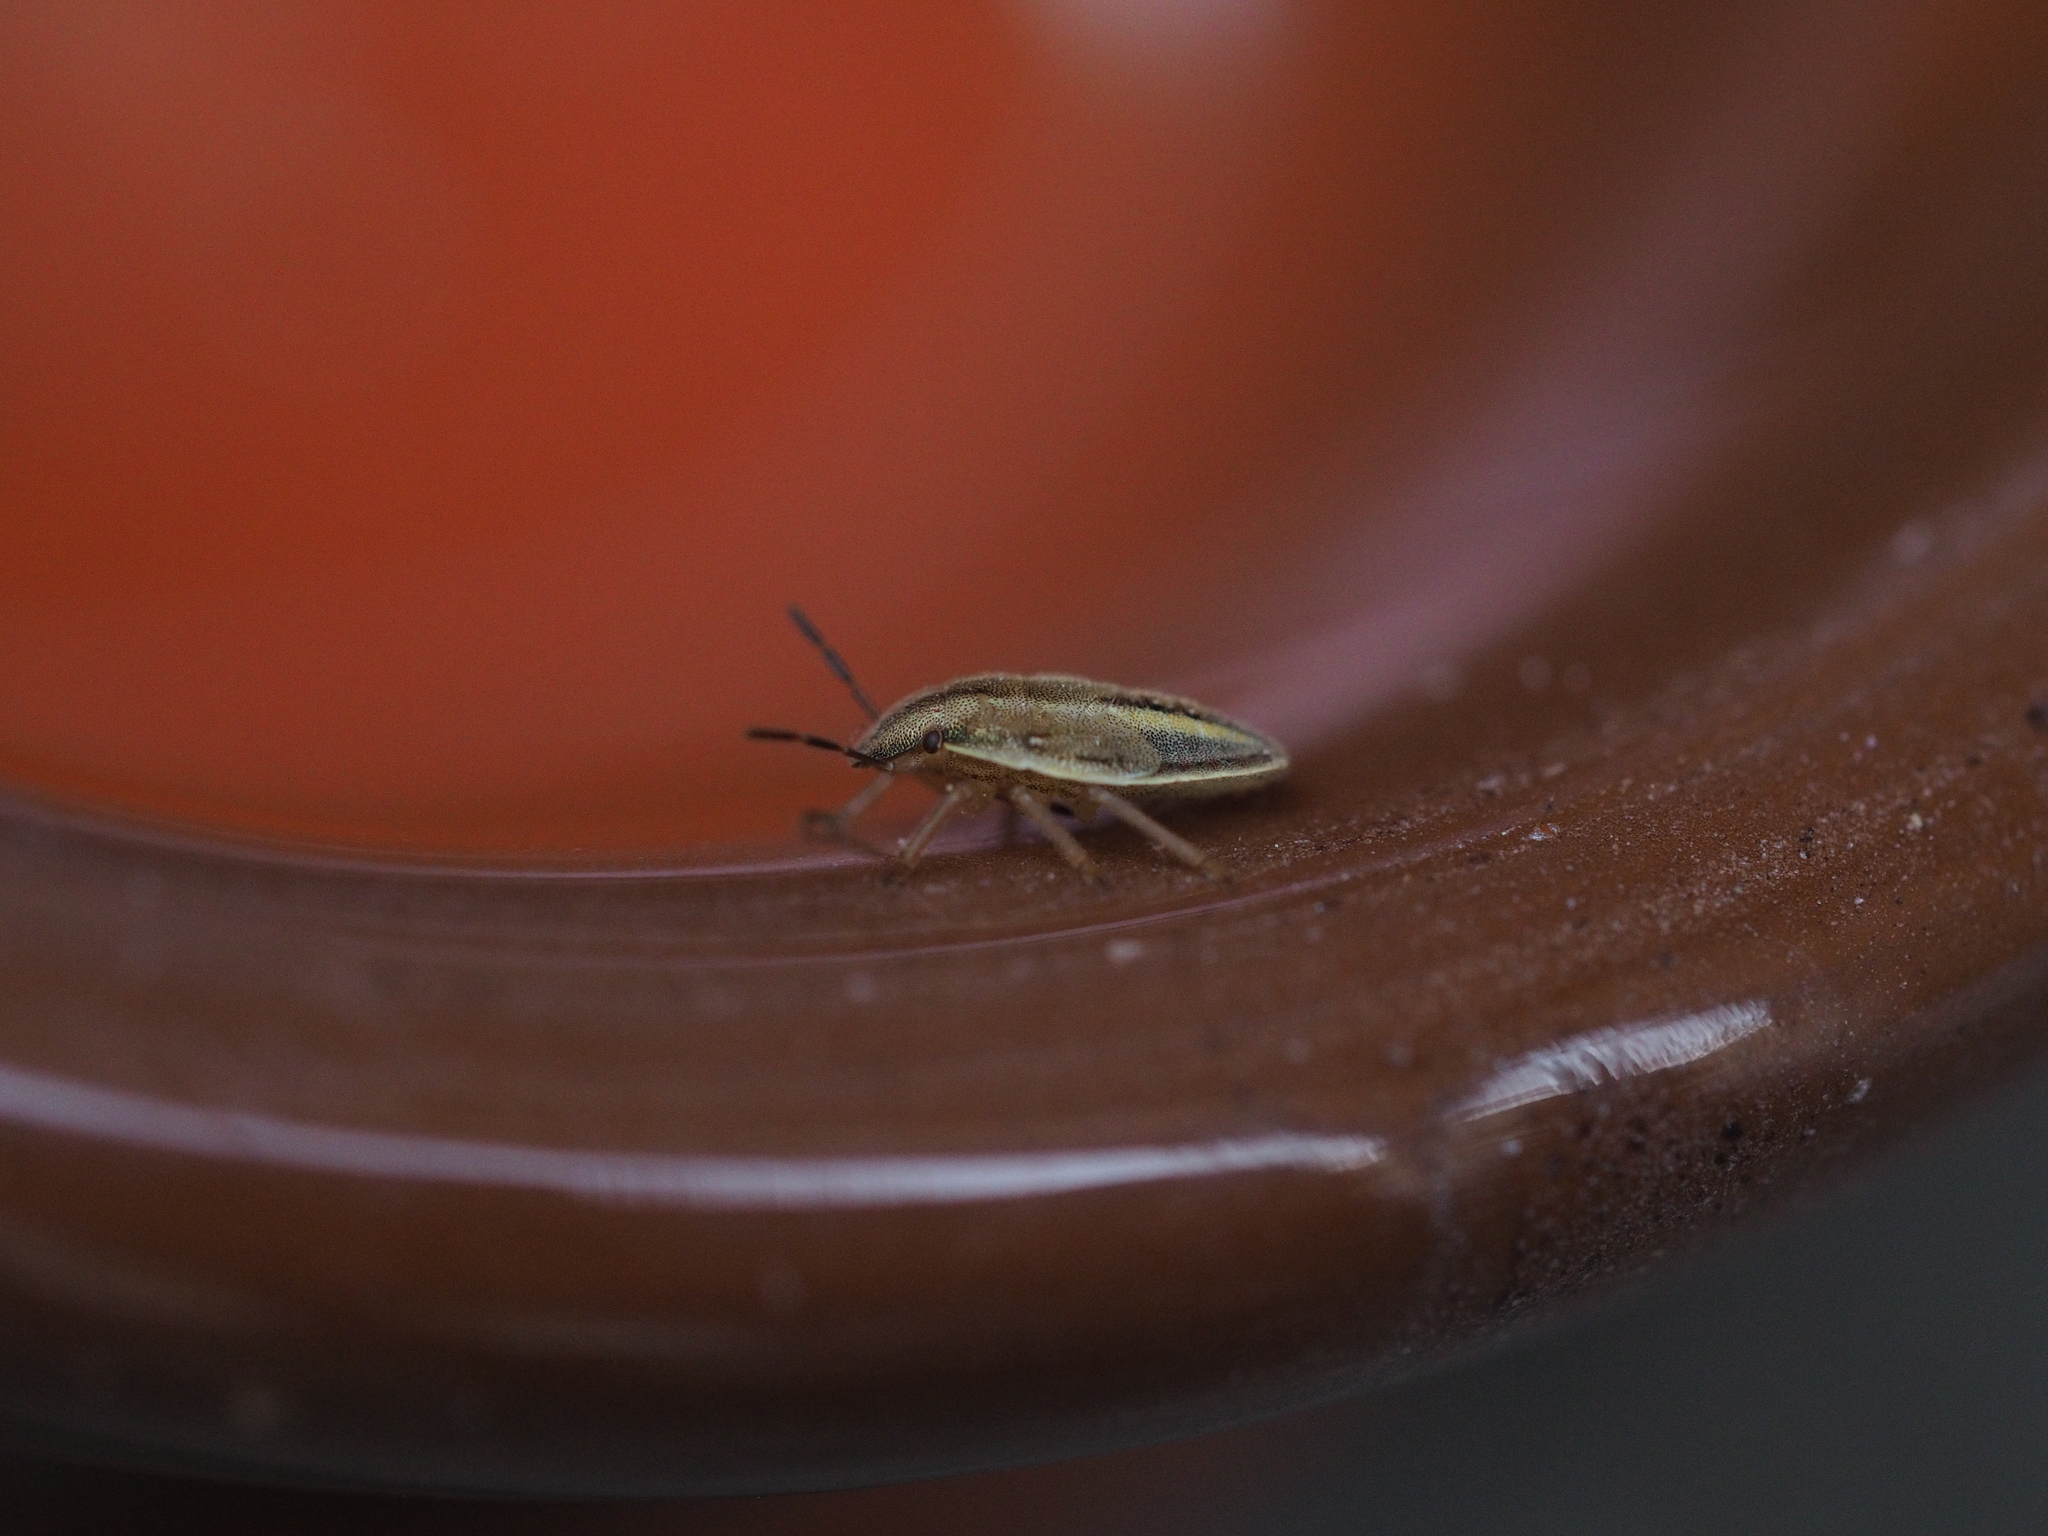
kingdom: Animalia
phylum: Arthropoda
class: Insecta
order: Hemiptera
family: Pentatomidae
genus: Aelia
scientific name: Aelia acuminata
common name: Bishop's mitre
